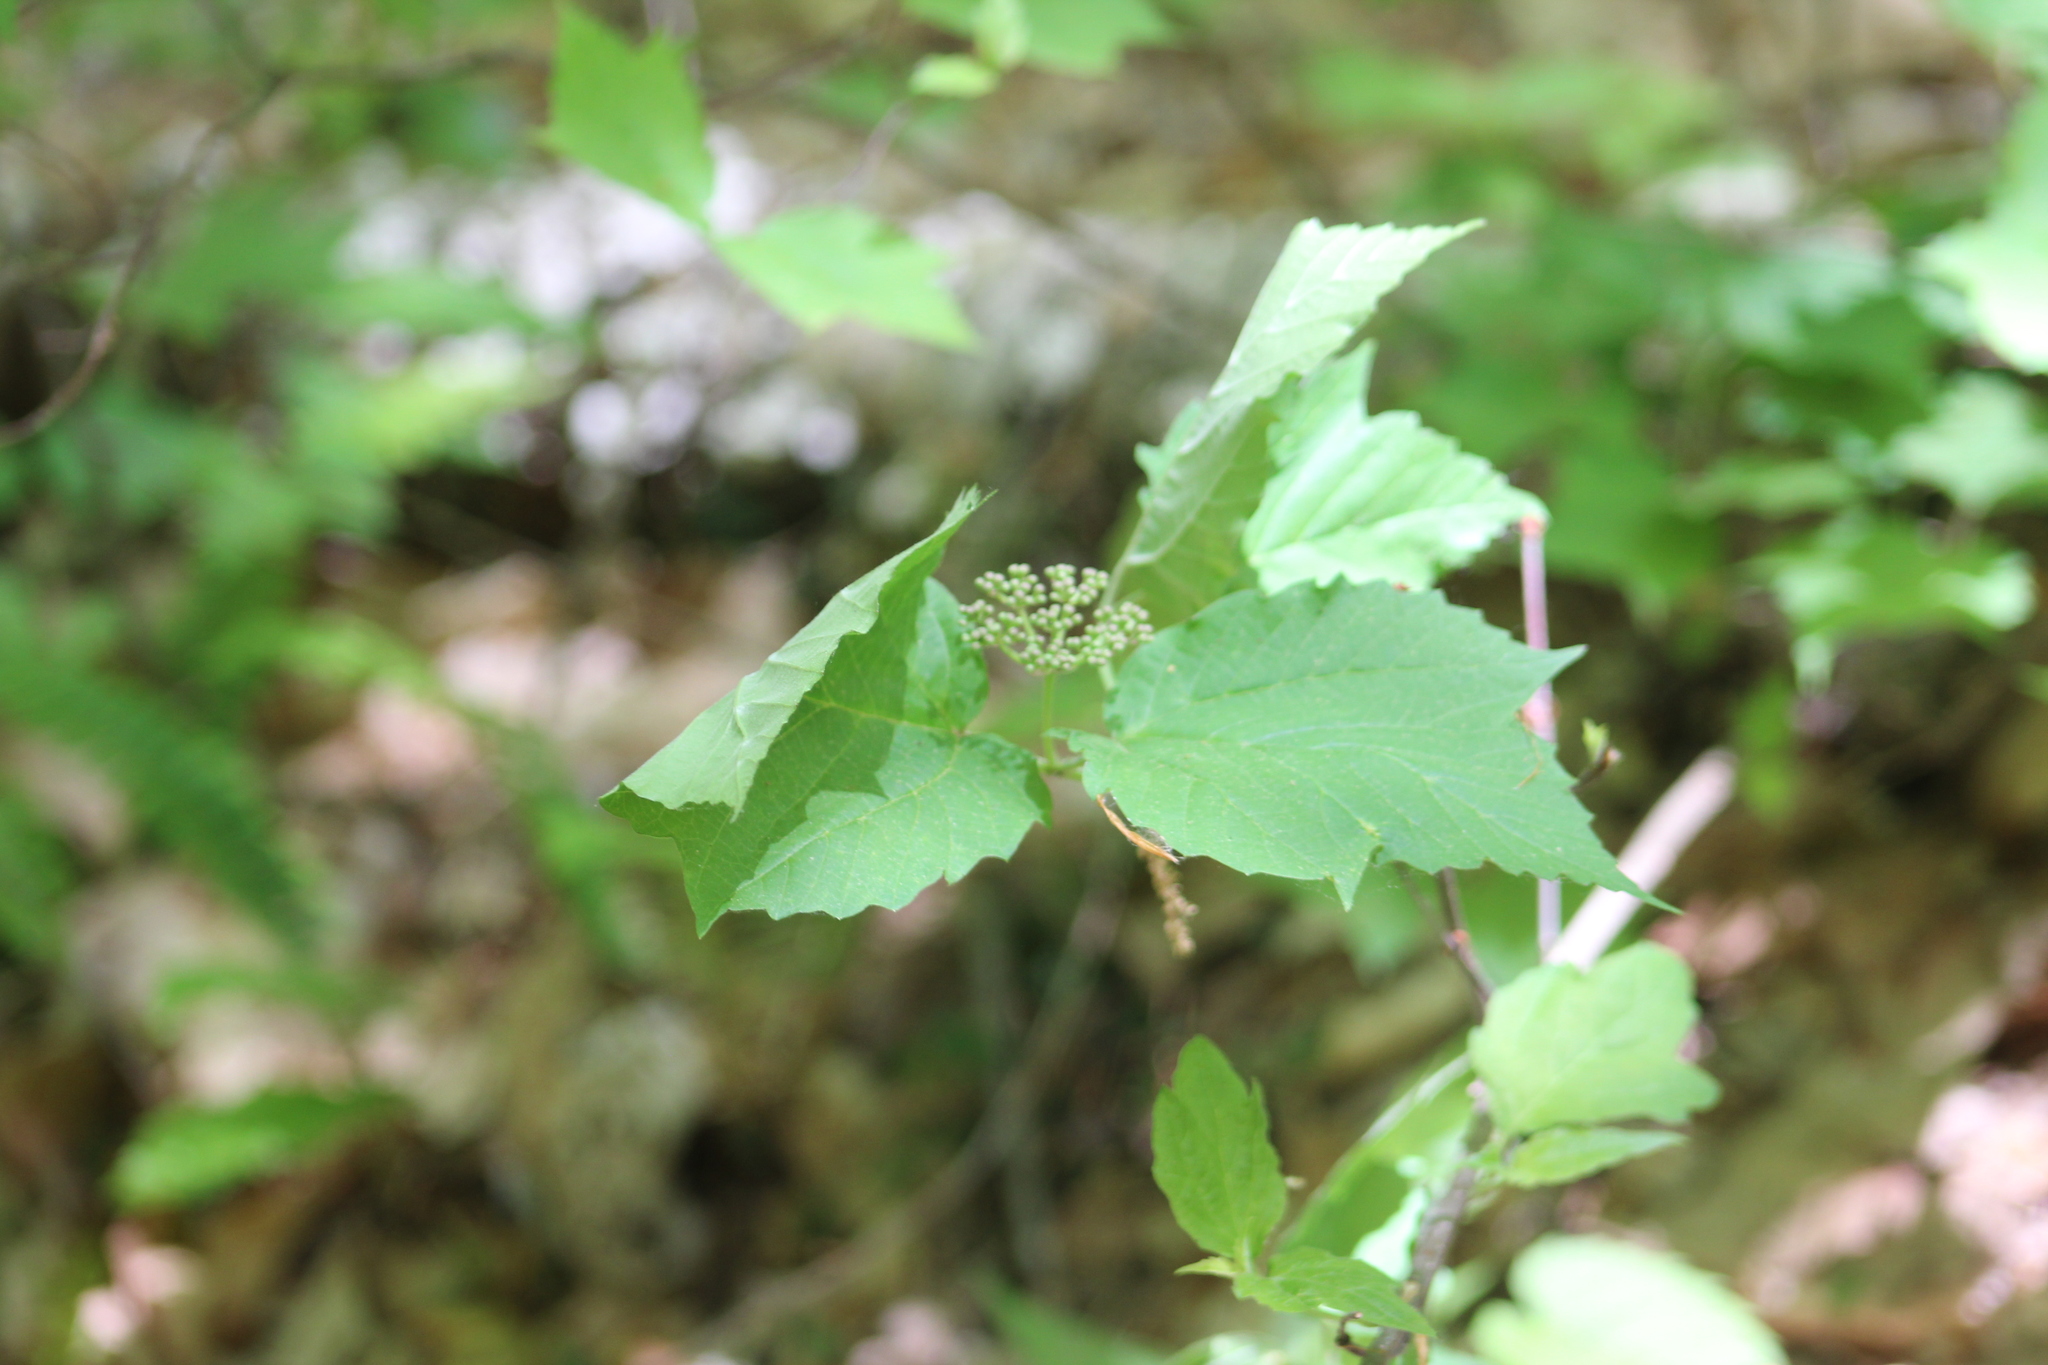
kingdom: Plantae
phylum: Tracheophyta
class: Magnoliopsida
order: Dipsacales
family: Viburnaceae
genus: Viburnum
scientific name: Viburnum acerifolium
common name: Dockmackie
